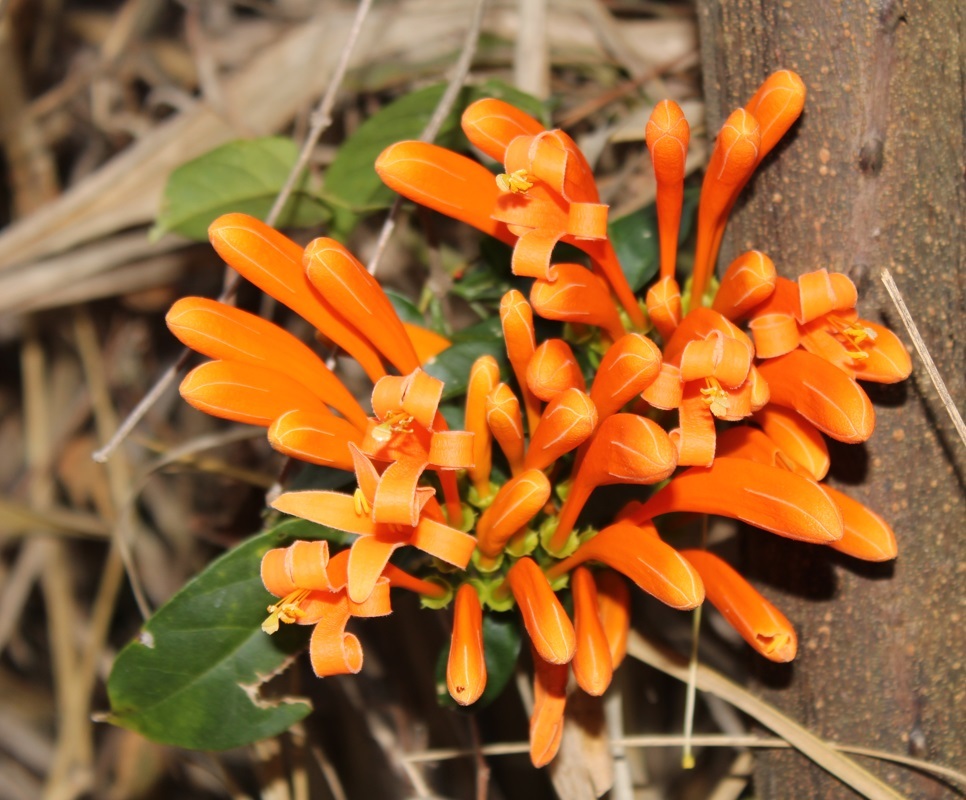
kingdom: Plantae
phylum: Tracheophyta
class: Magnoliopsida
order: Lamiales
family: Bignoniaceae
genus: Pyrostegia
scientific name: Pyrostegia venusta
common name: Flamevine
